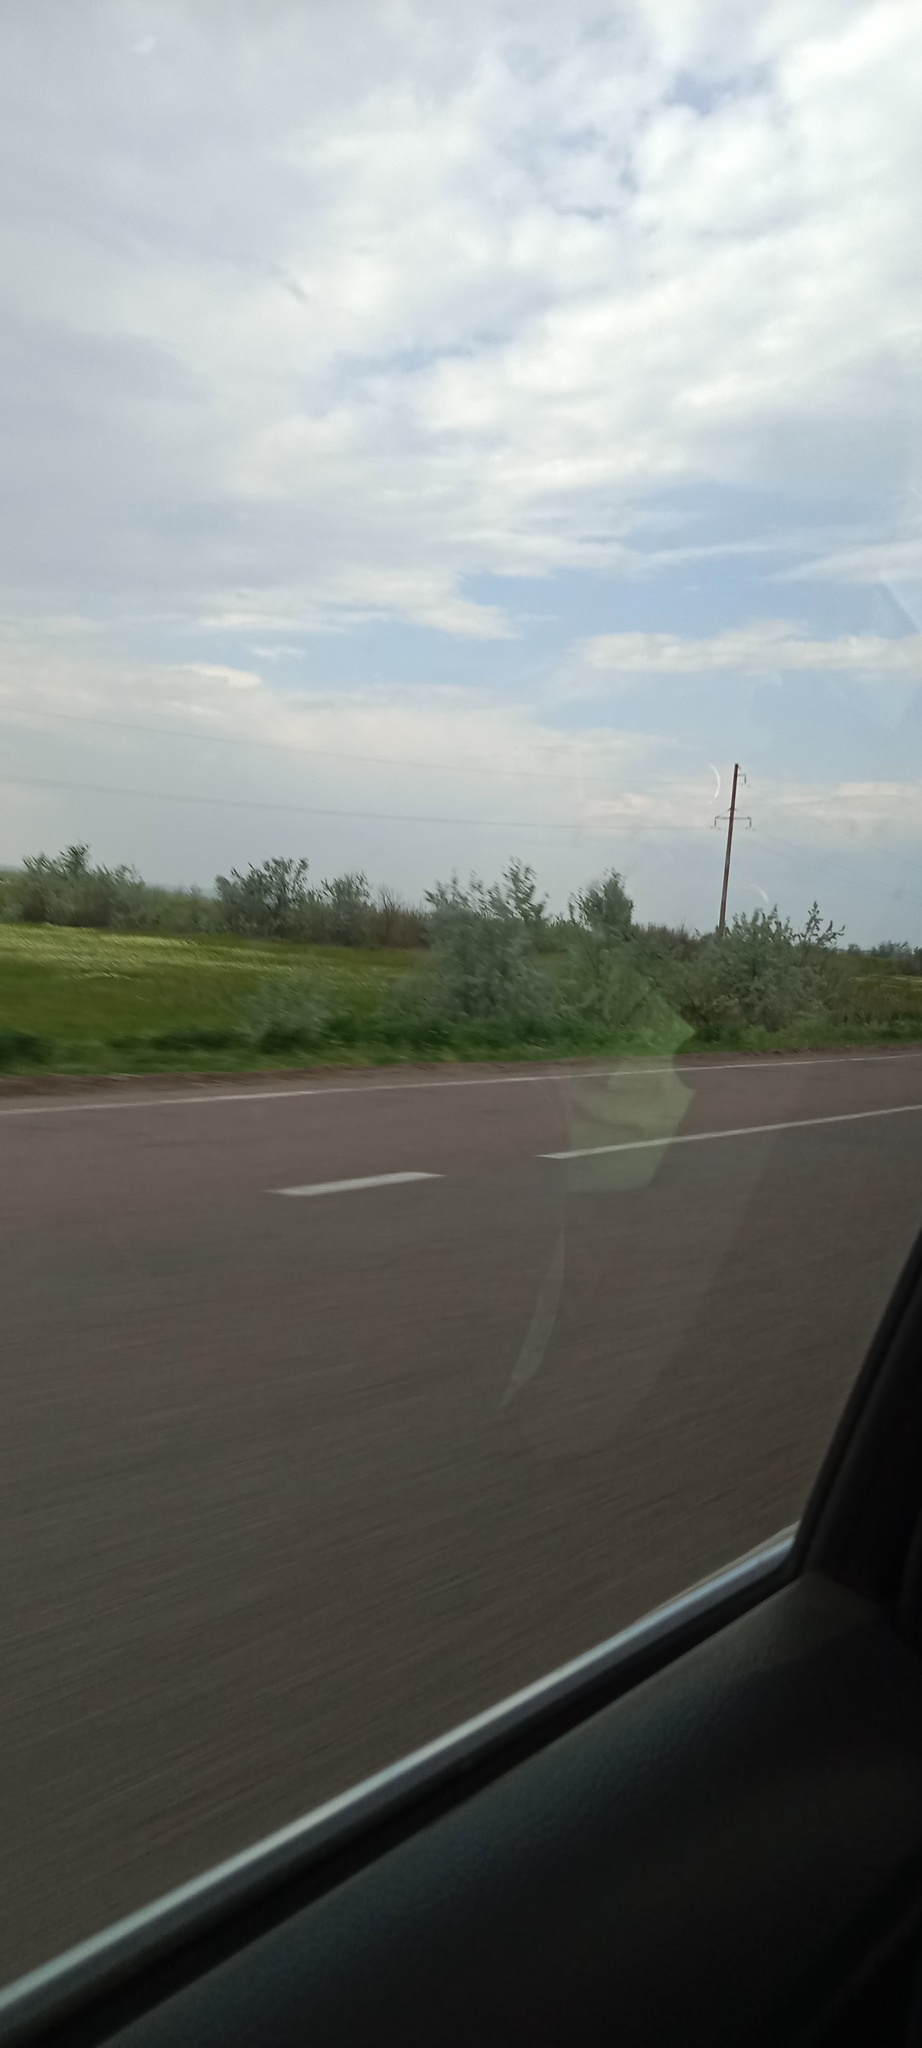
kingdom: Plantae
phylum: Tracheophyta
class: Magnoliopsida
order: Rosales
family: Elaeagnaceae
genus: Elaeagnus
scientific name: Elaeagnus angustifolia
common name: Russian olive
